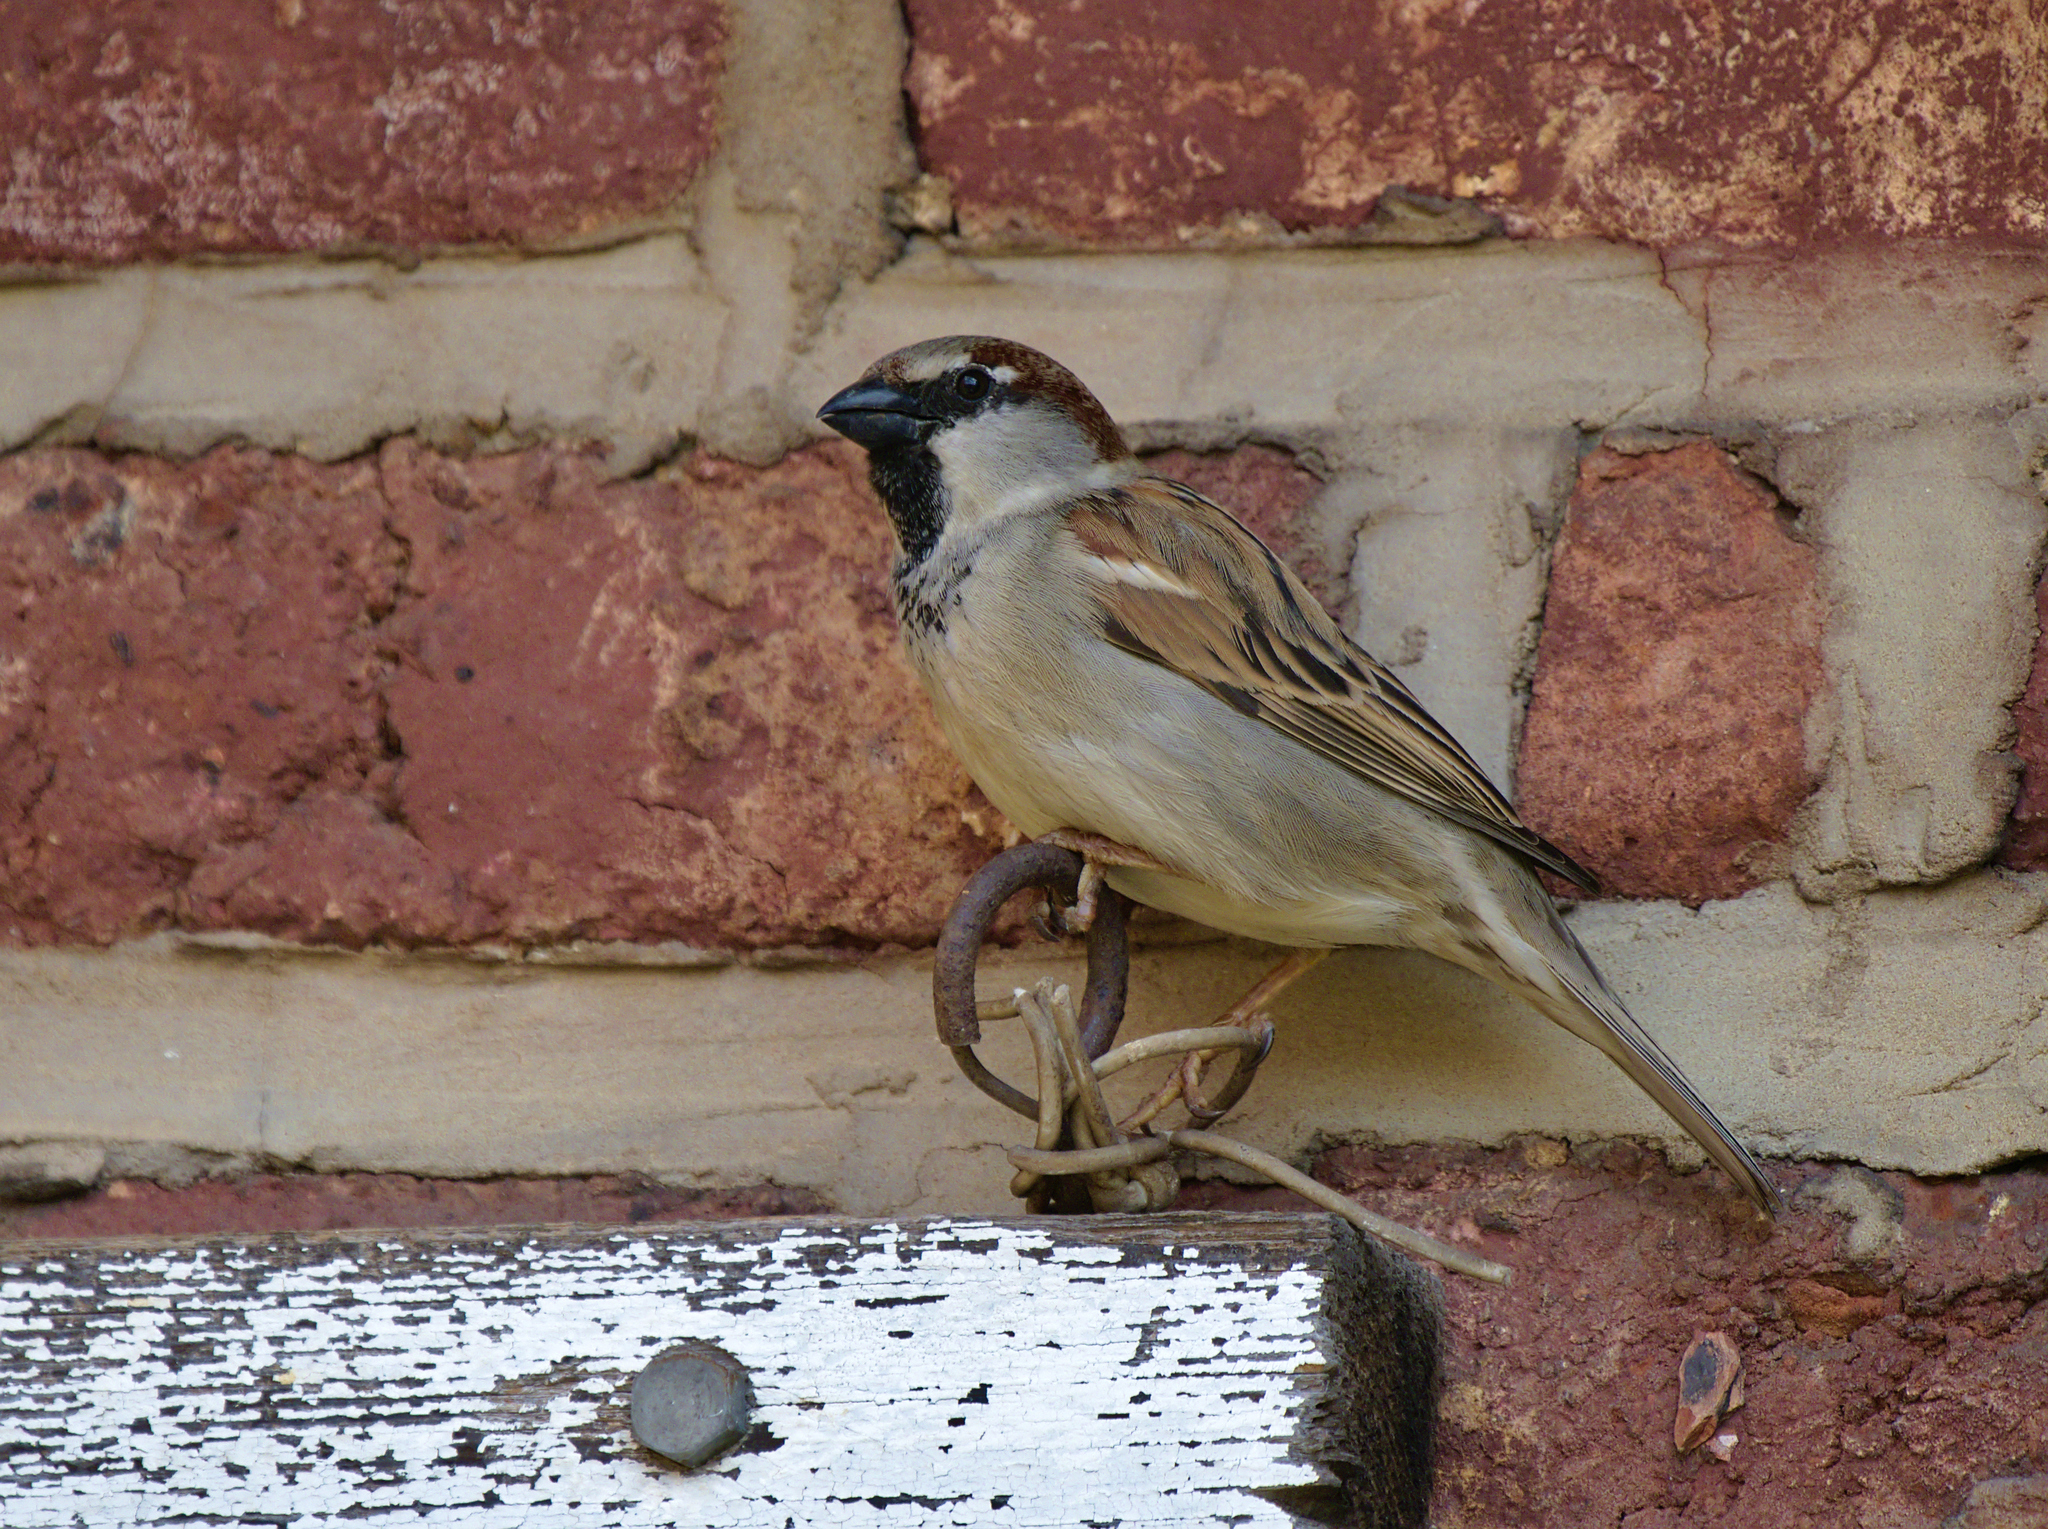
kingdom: Animalia
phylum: Chordata
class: Aves
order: Passeriformes
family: Passeridae
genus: Passer
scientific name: Passer domesticus
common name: House sparrow
